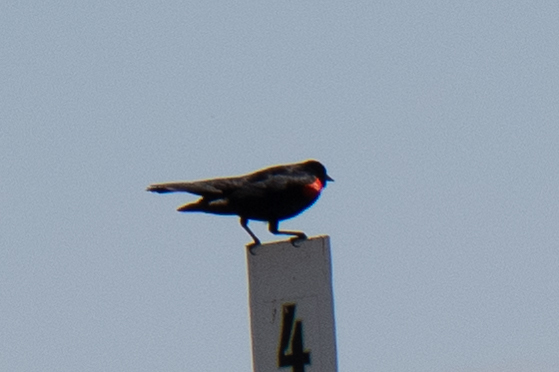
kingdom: Animalia
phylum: Chordata
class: Aves
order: Passeriformes
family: Icteridae
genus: Agelaius
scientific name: Agelaius phoeniceus
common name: Red-winged blackbird
